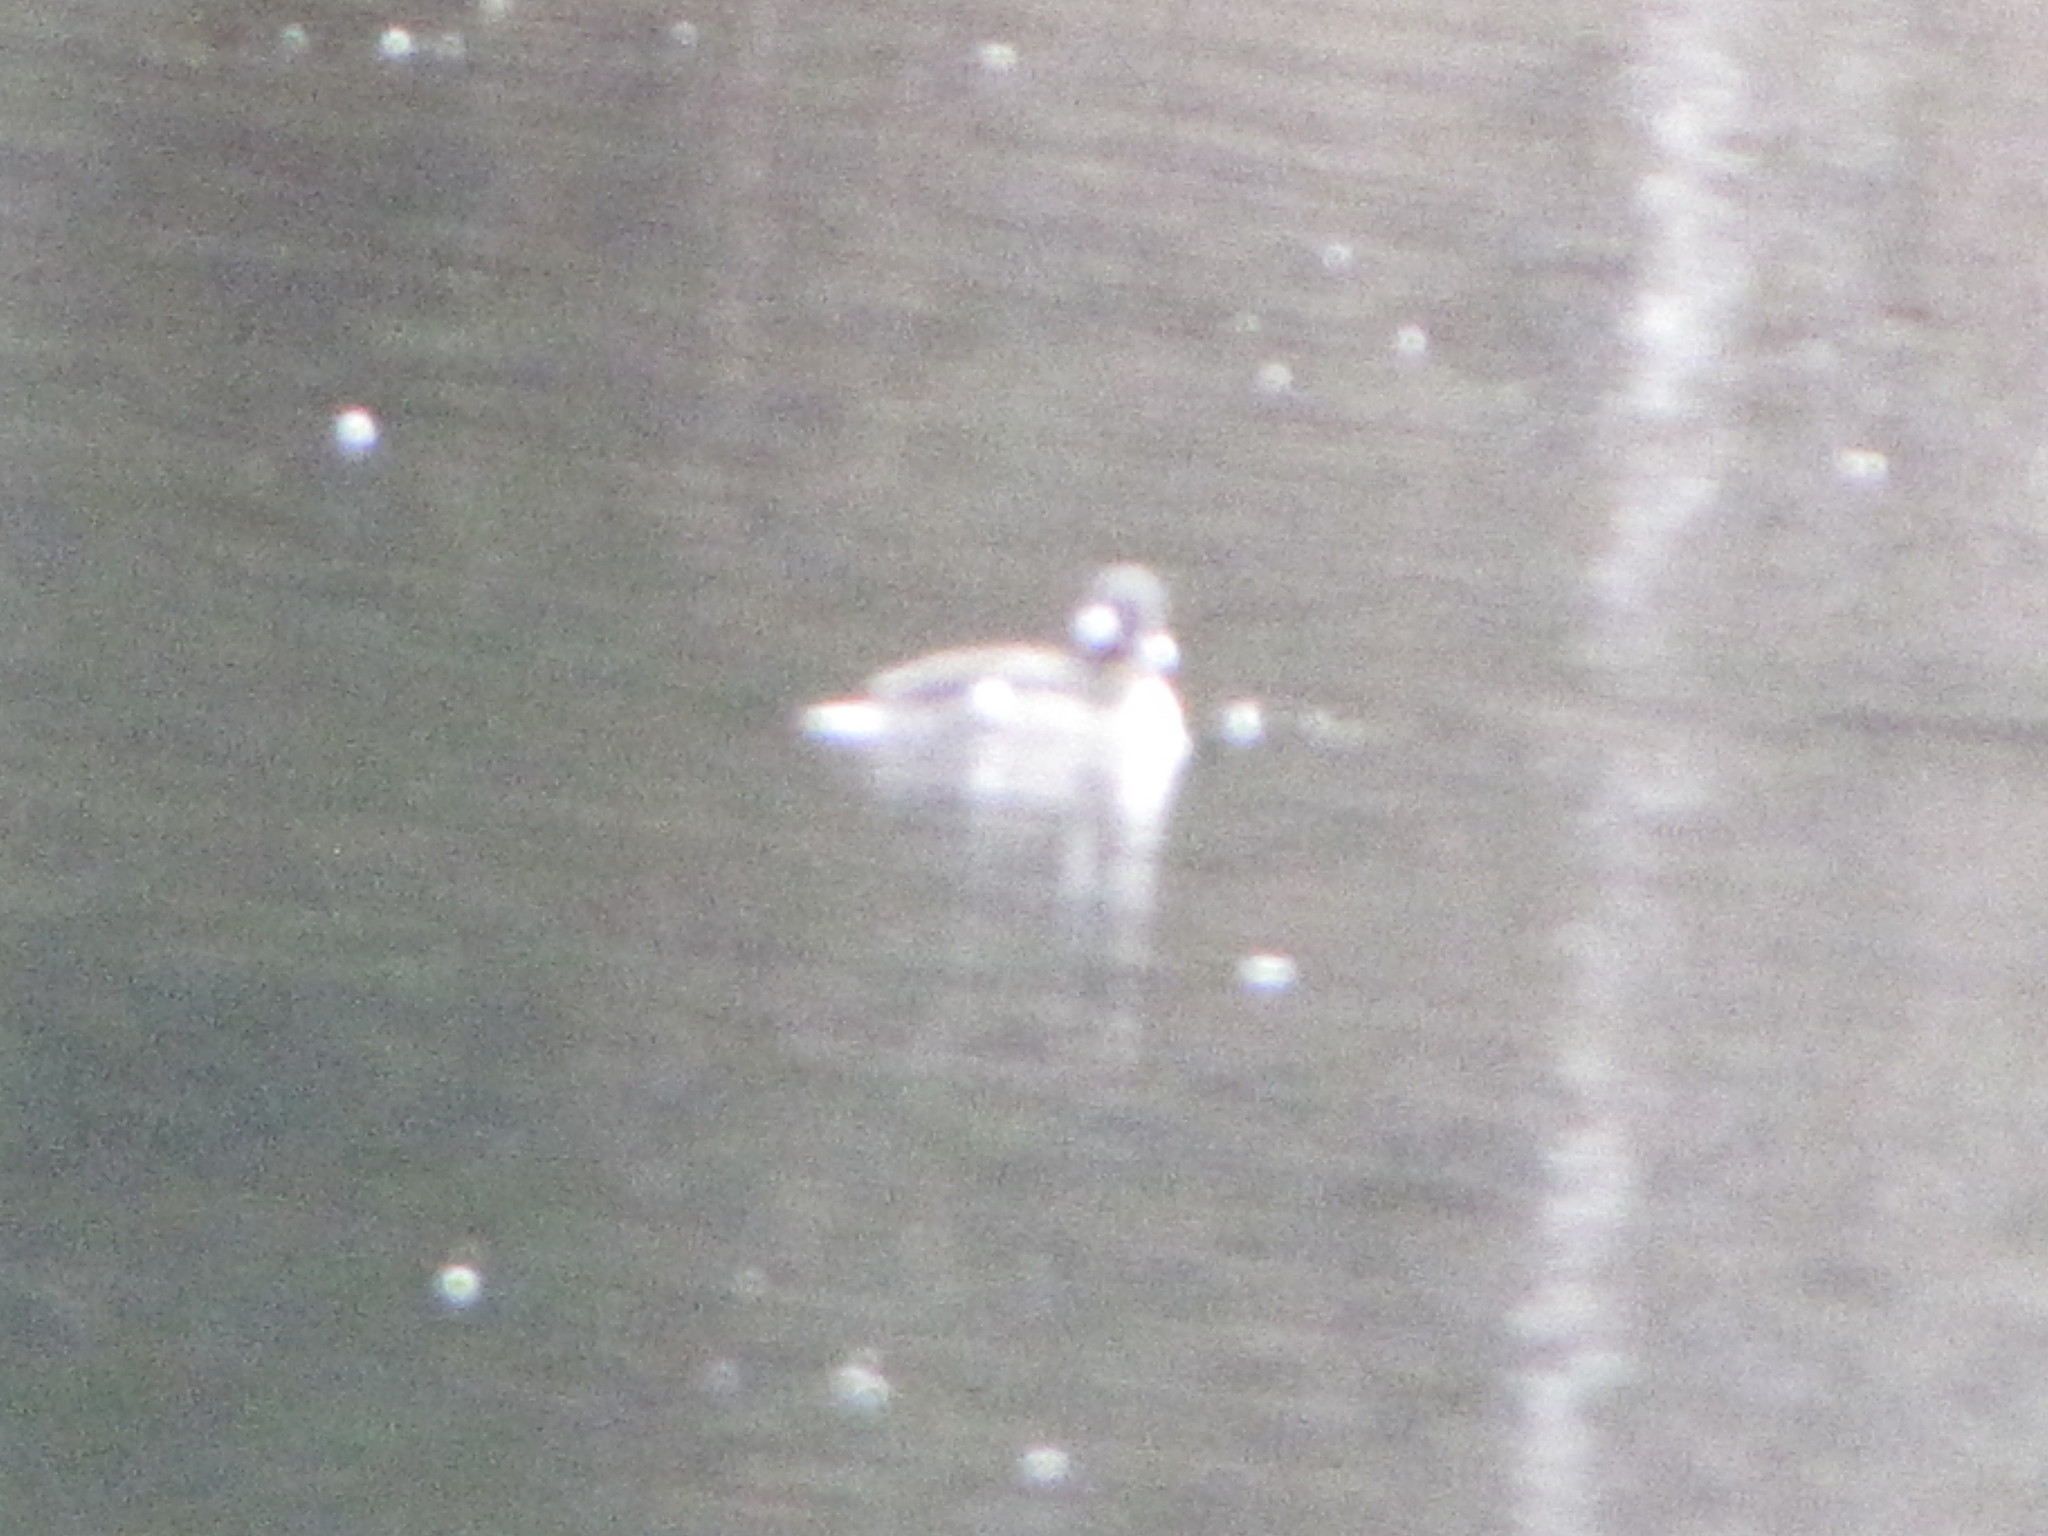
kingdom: Animalia
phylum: Chordata
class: Aves
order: Anseriformes
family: Anatidae
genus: Bucephala
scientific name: Bucephala albeola
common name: Bufflehead
